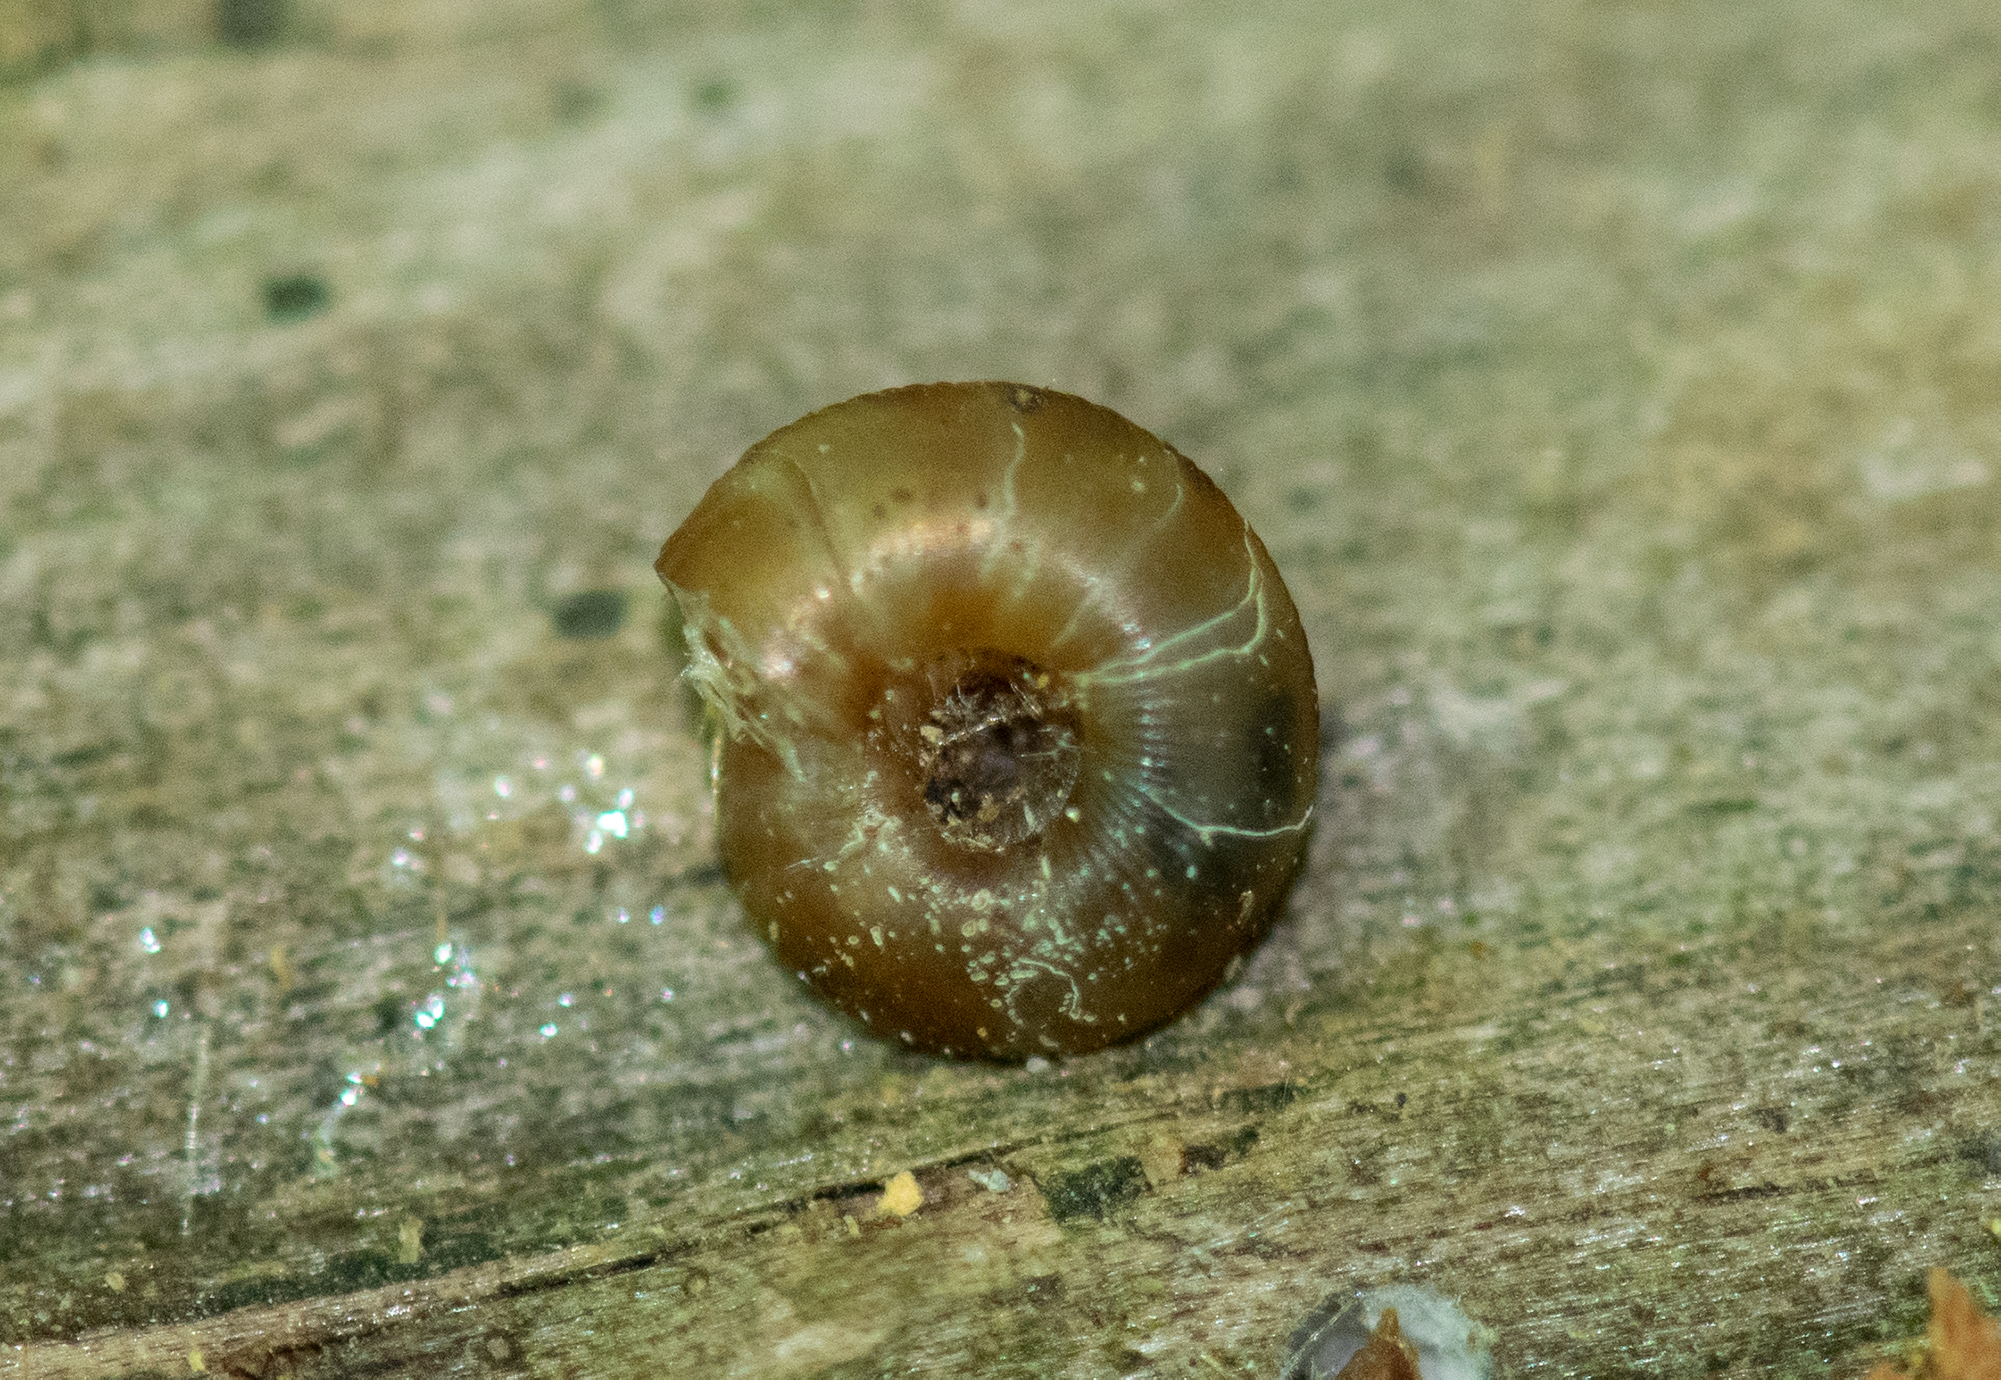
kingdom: Animalia
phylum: Mollusca
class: Gastropoda
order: Stylommatophora
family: Discidae
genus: Discus
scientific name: Discus rotundatus
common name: Rounded snail
